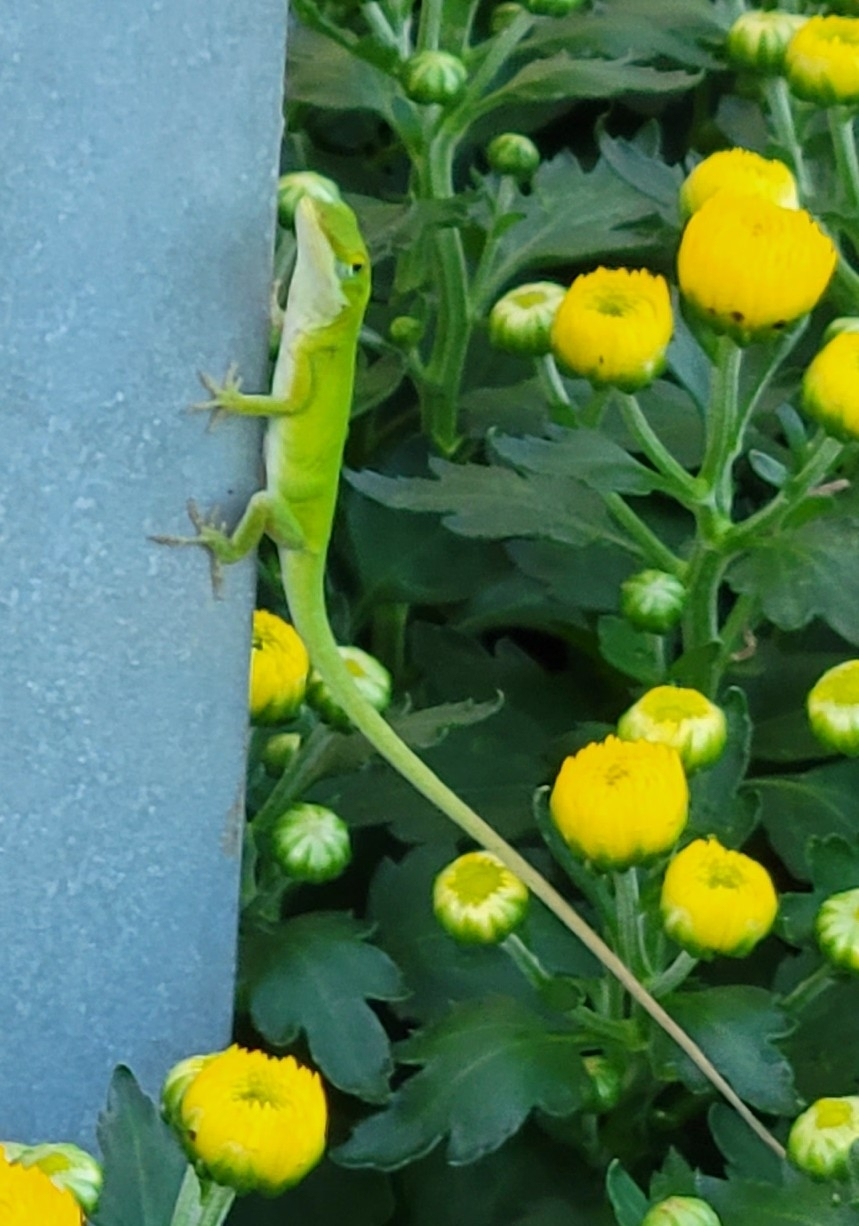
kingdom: Animalia
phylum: Chordata
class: Squamata
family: Dactyloidae
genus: Anolis
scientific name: Anolis carolinensis
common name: Green anole
